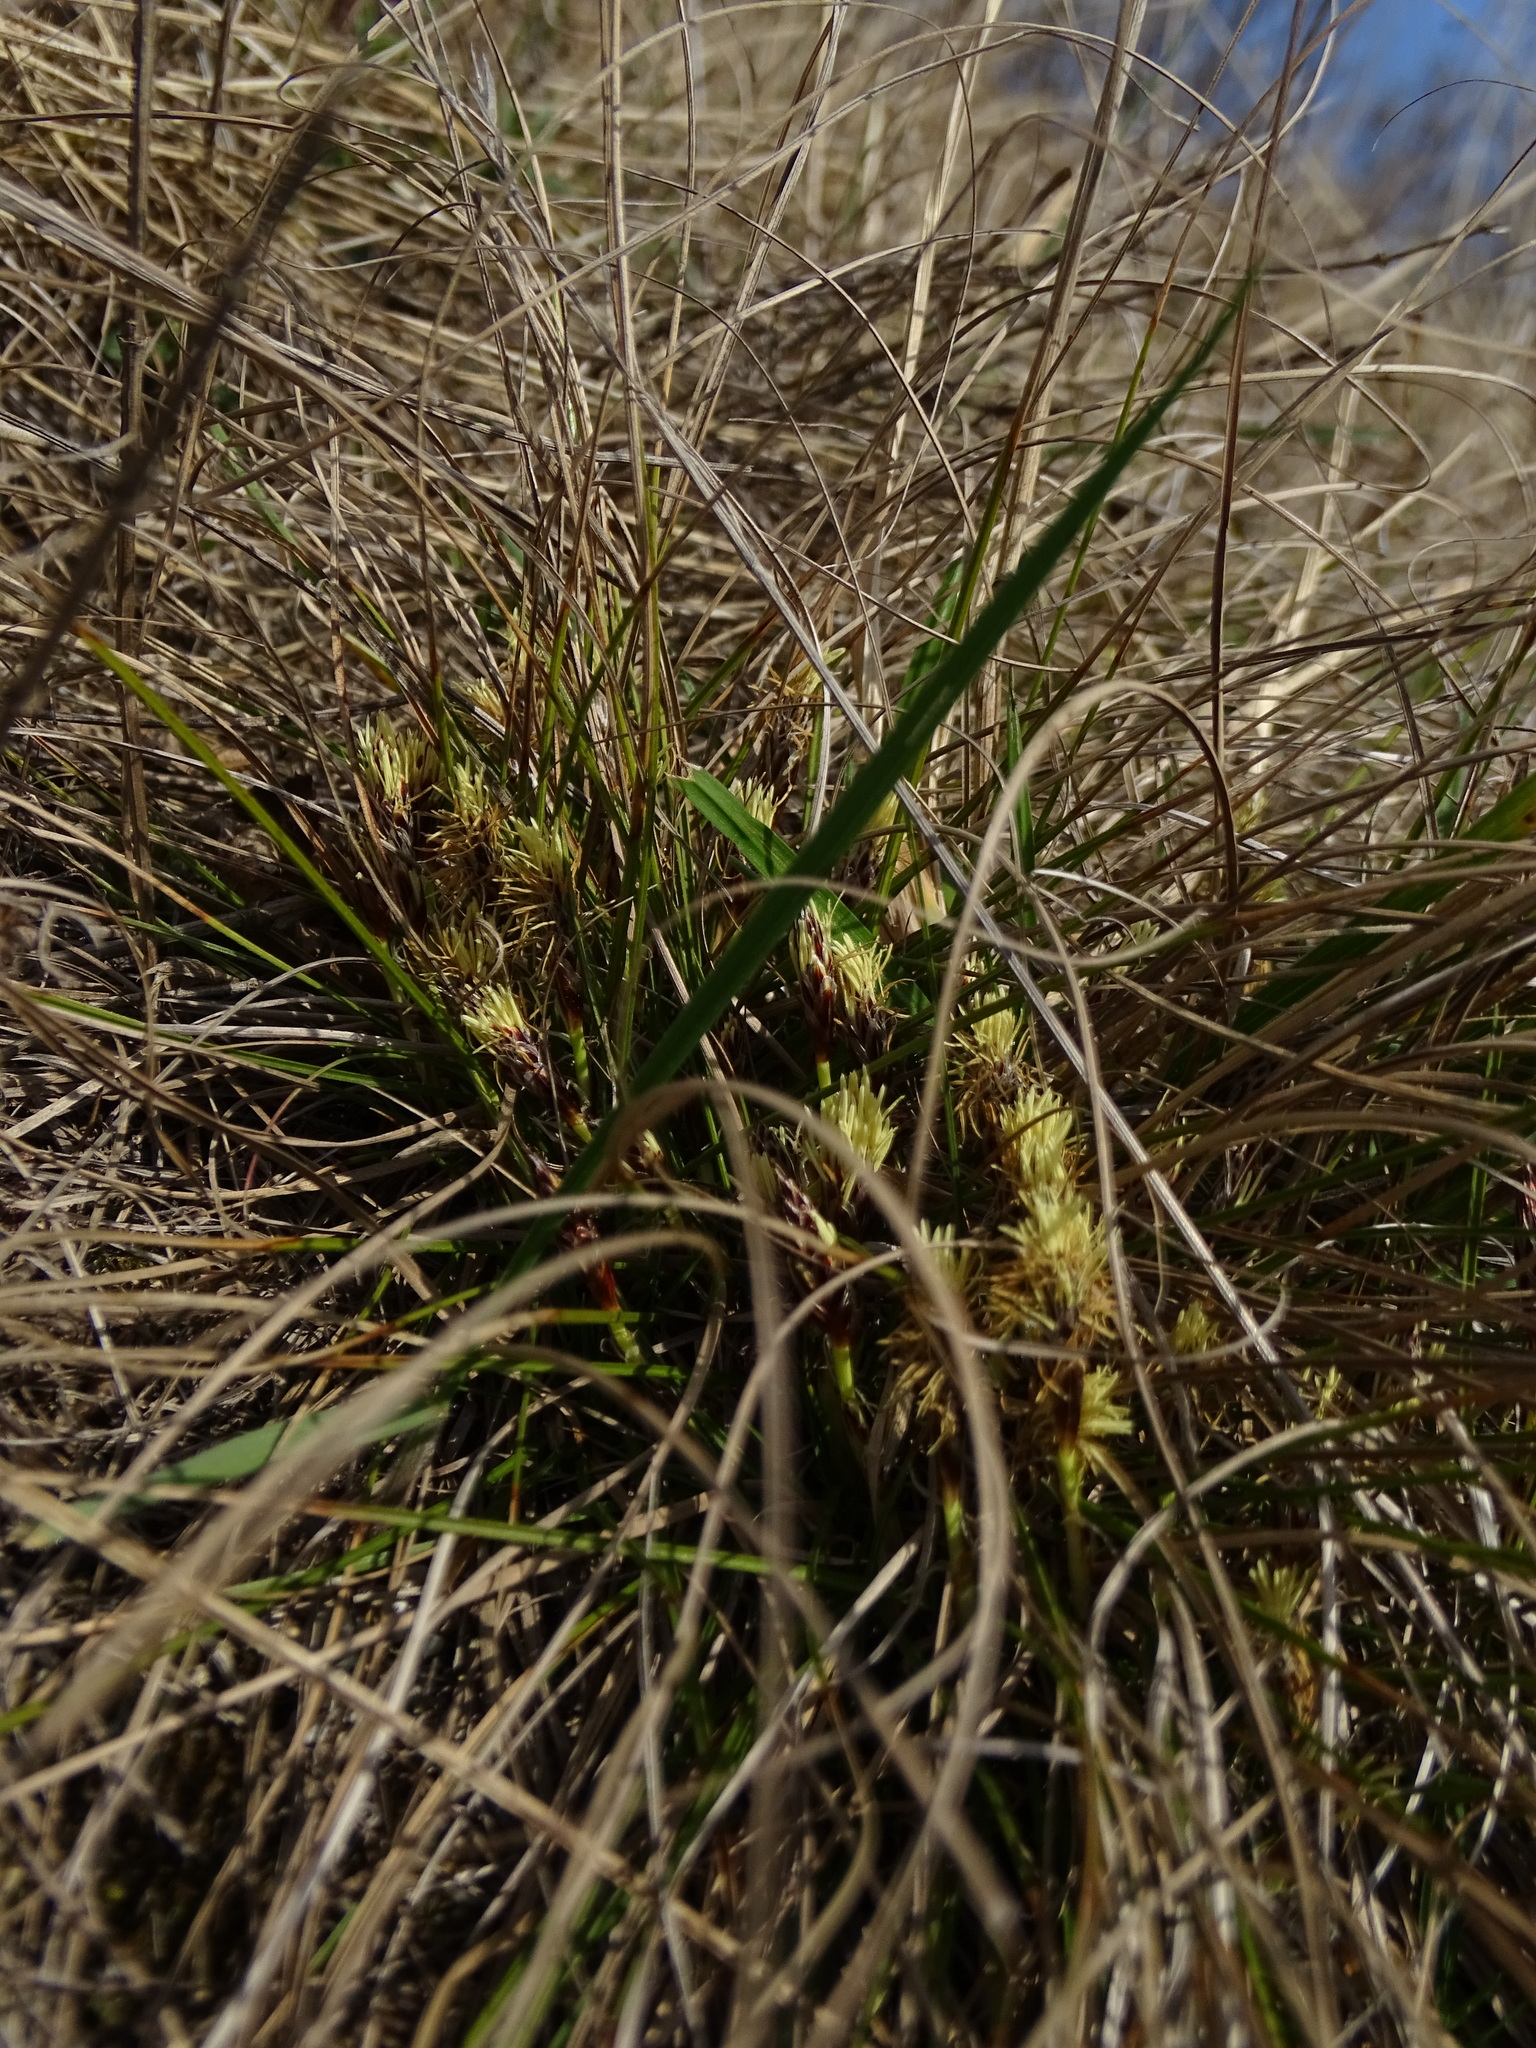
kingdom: Plantae
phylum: Tracheophyta
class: Liliopsida
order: Poales
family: Cyperaceae
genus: Carex
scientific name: Carex humilis
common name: Dwarf sedge
